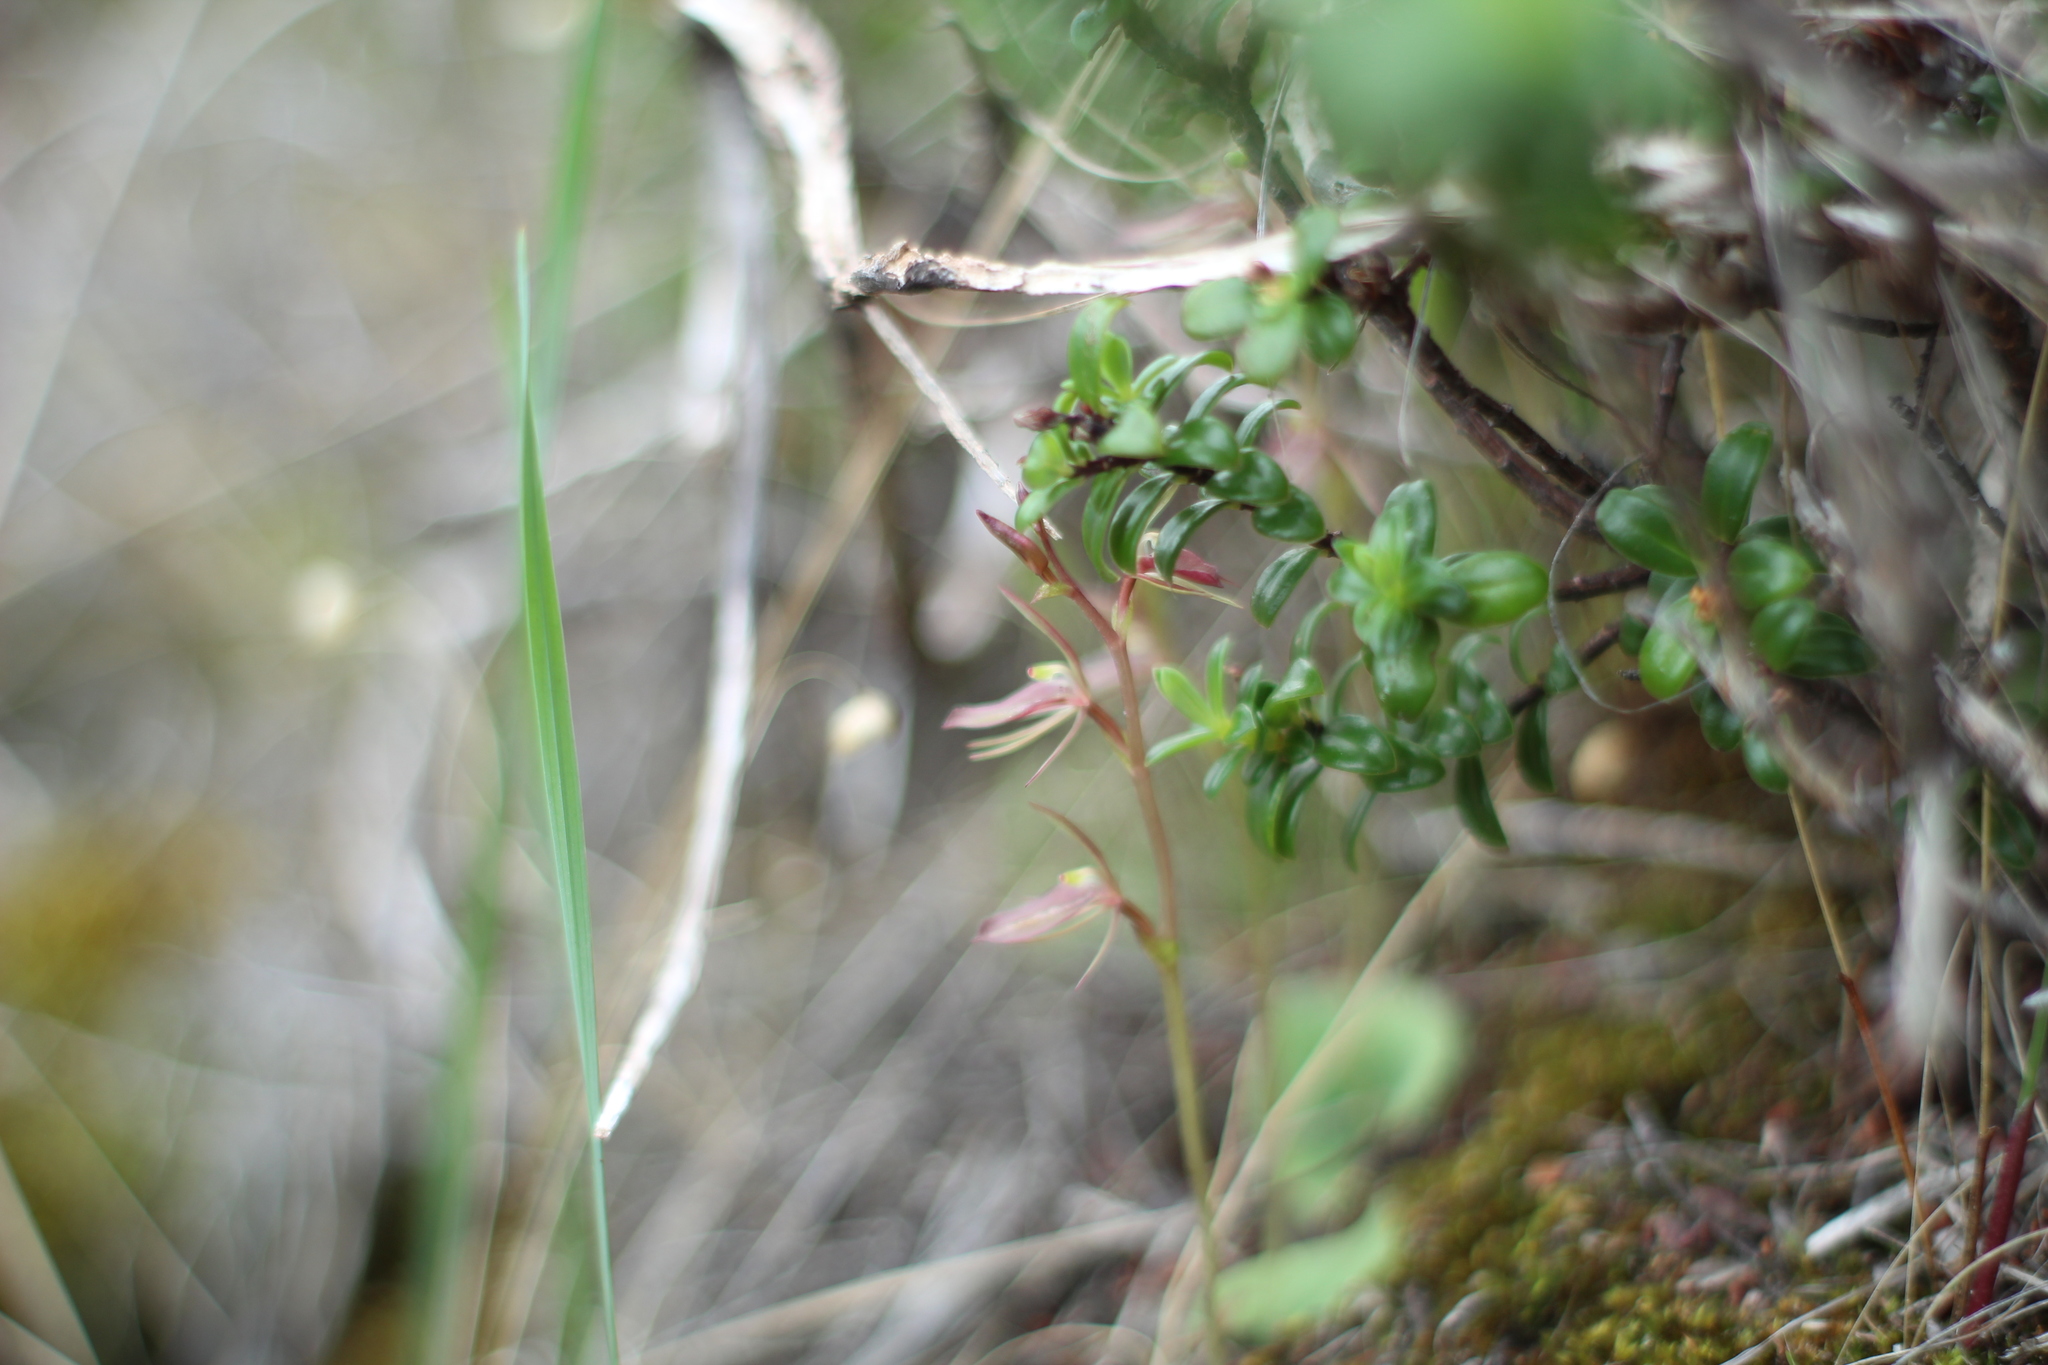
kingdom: Plantae
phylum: Tracheophyta
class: Liliopsida
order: Asparagales
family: Orchidaceae
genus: Cyrtostylis
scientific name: Cyrtostylis robusta
